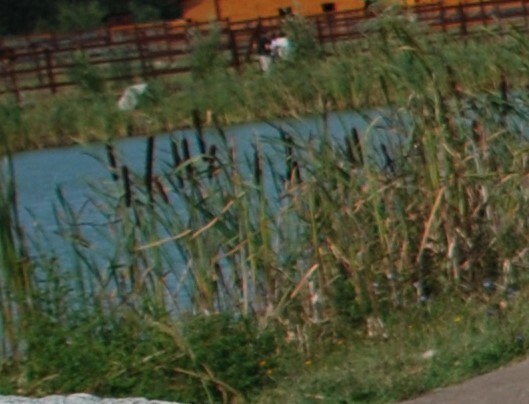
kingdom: Plantae
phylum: Tracheophyta
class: Liliopsida
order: Poales
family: Typhaceae
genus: Typha
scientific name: Typha latifolia
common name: Broadleaf cattail
